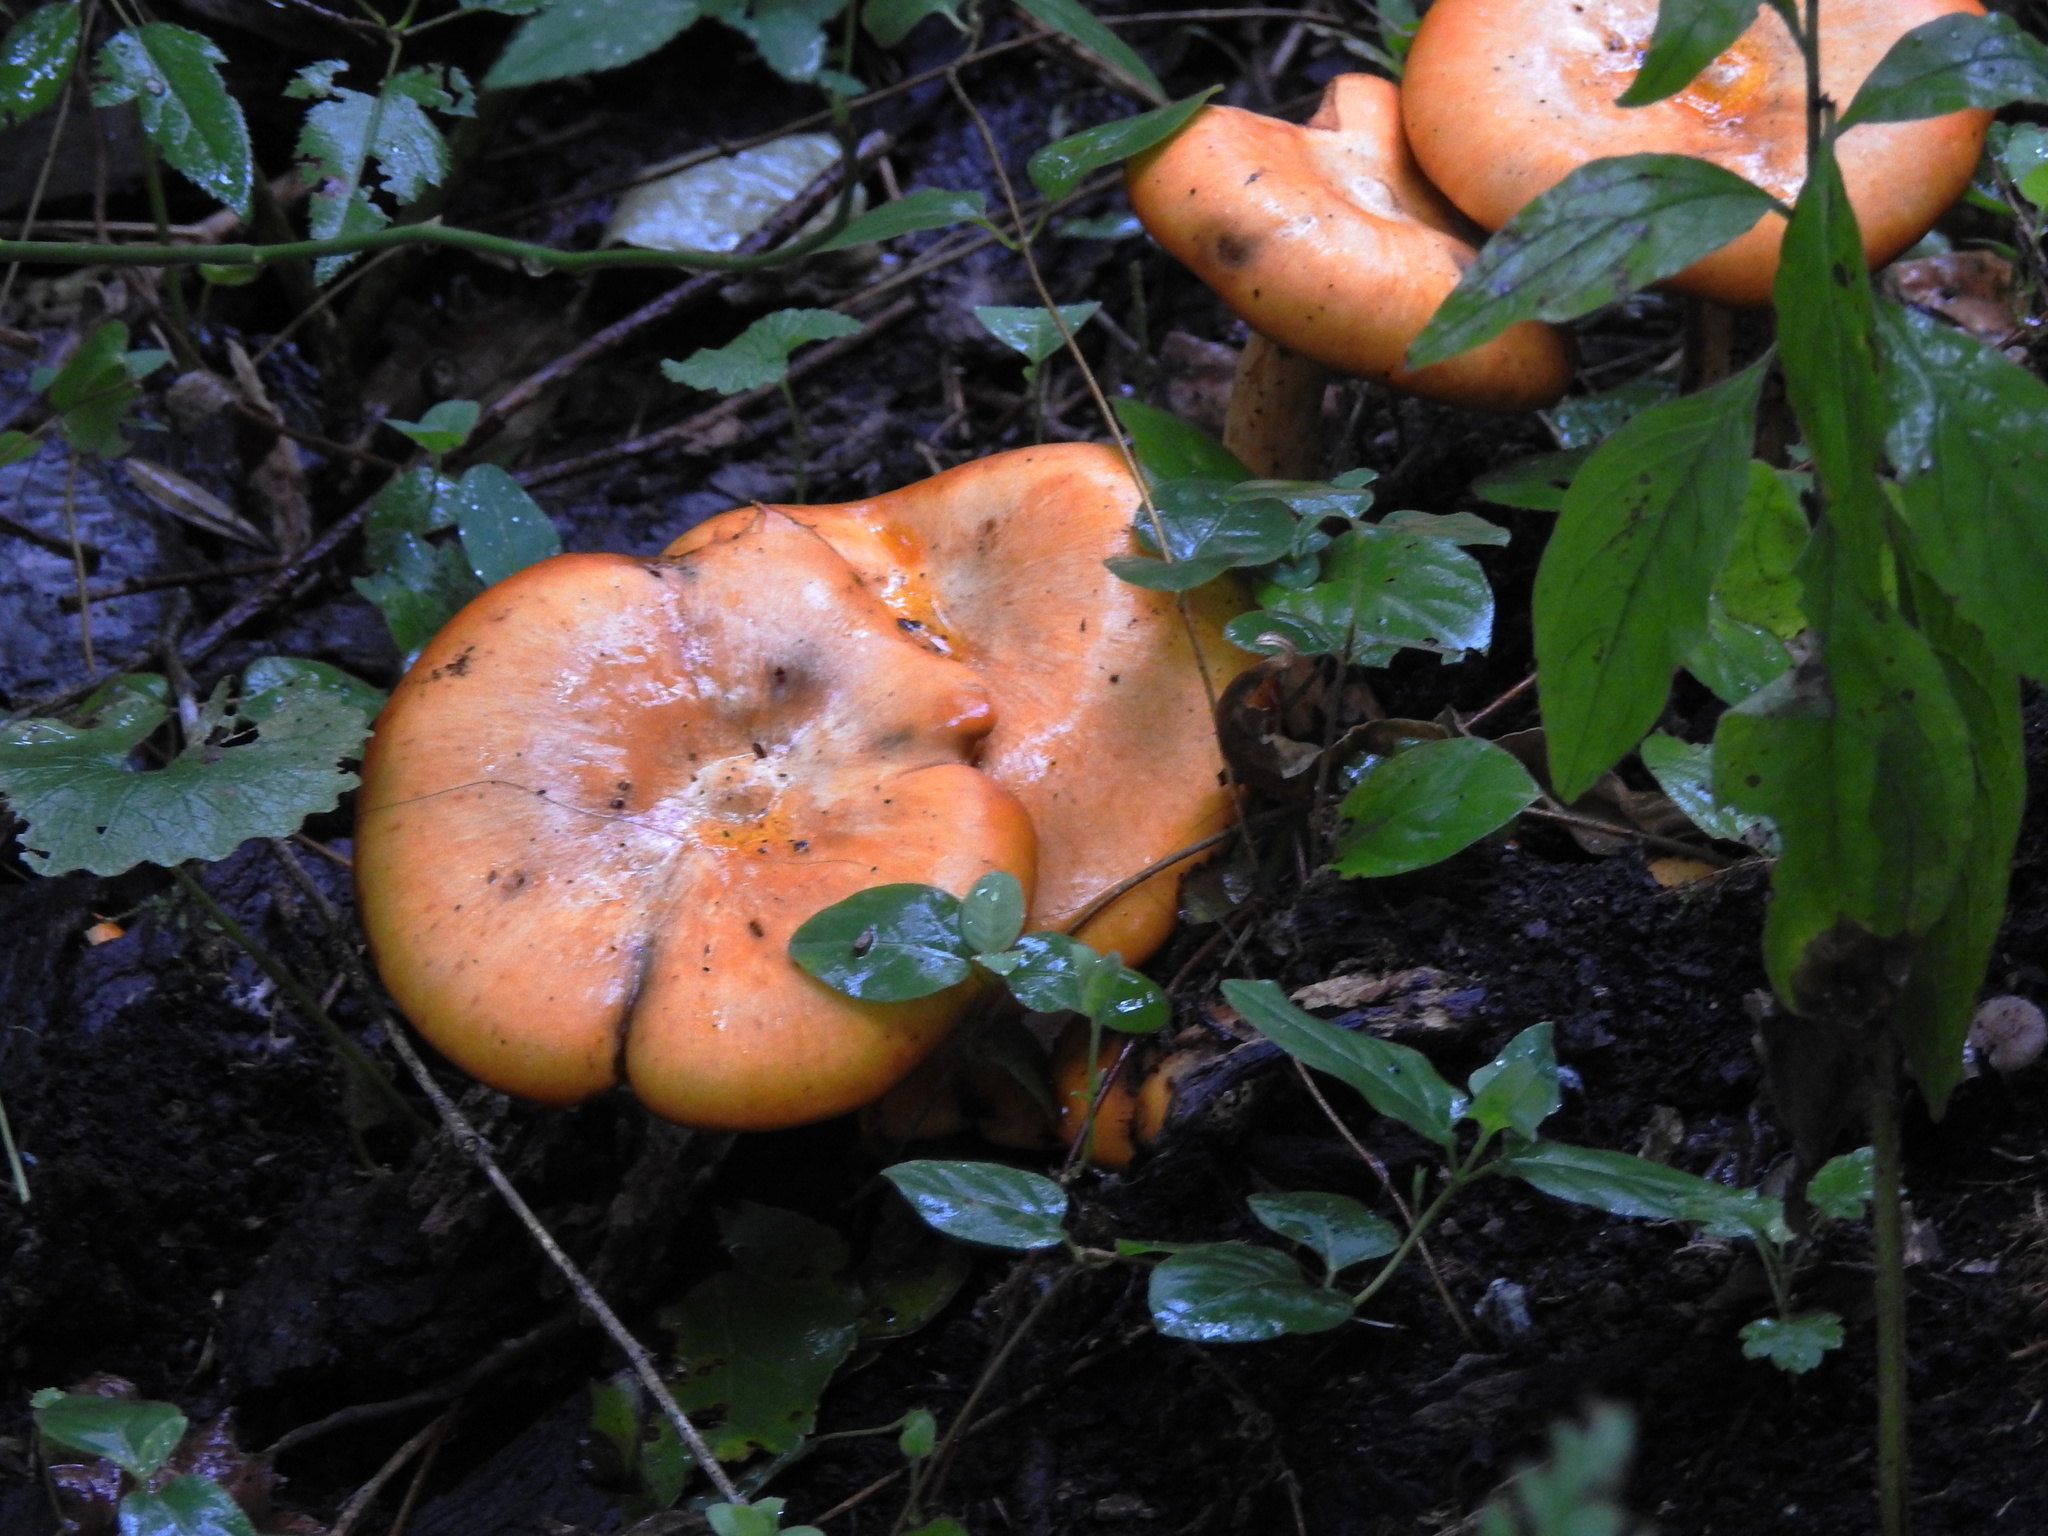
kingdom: Fungi
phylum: Basidiomycota
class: Agaricomycetes
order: Agaricales
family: Omphalotaceae
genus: Omphalotus
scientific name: Omphalotus illudens
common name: Jack o lantern
